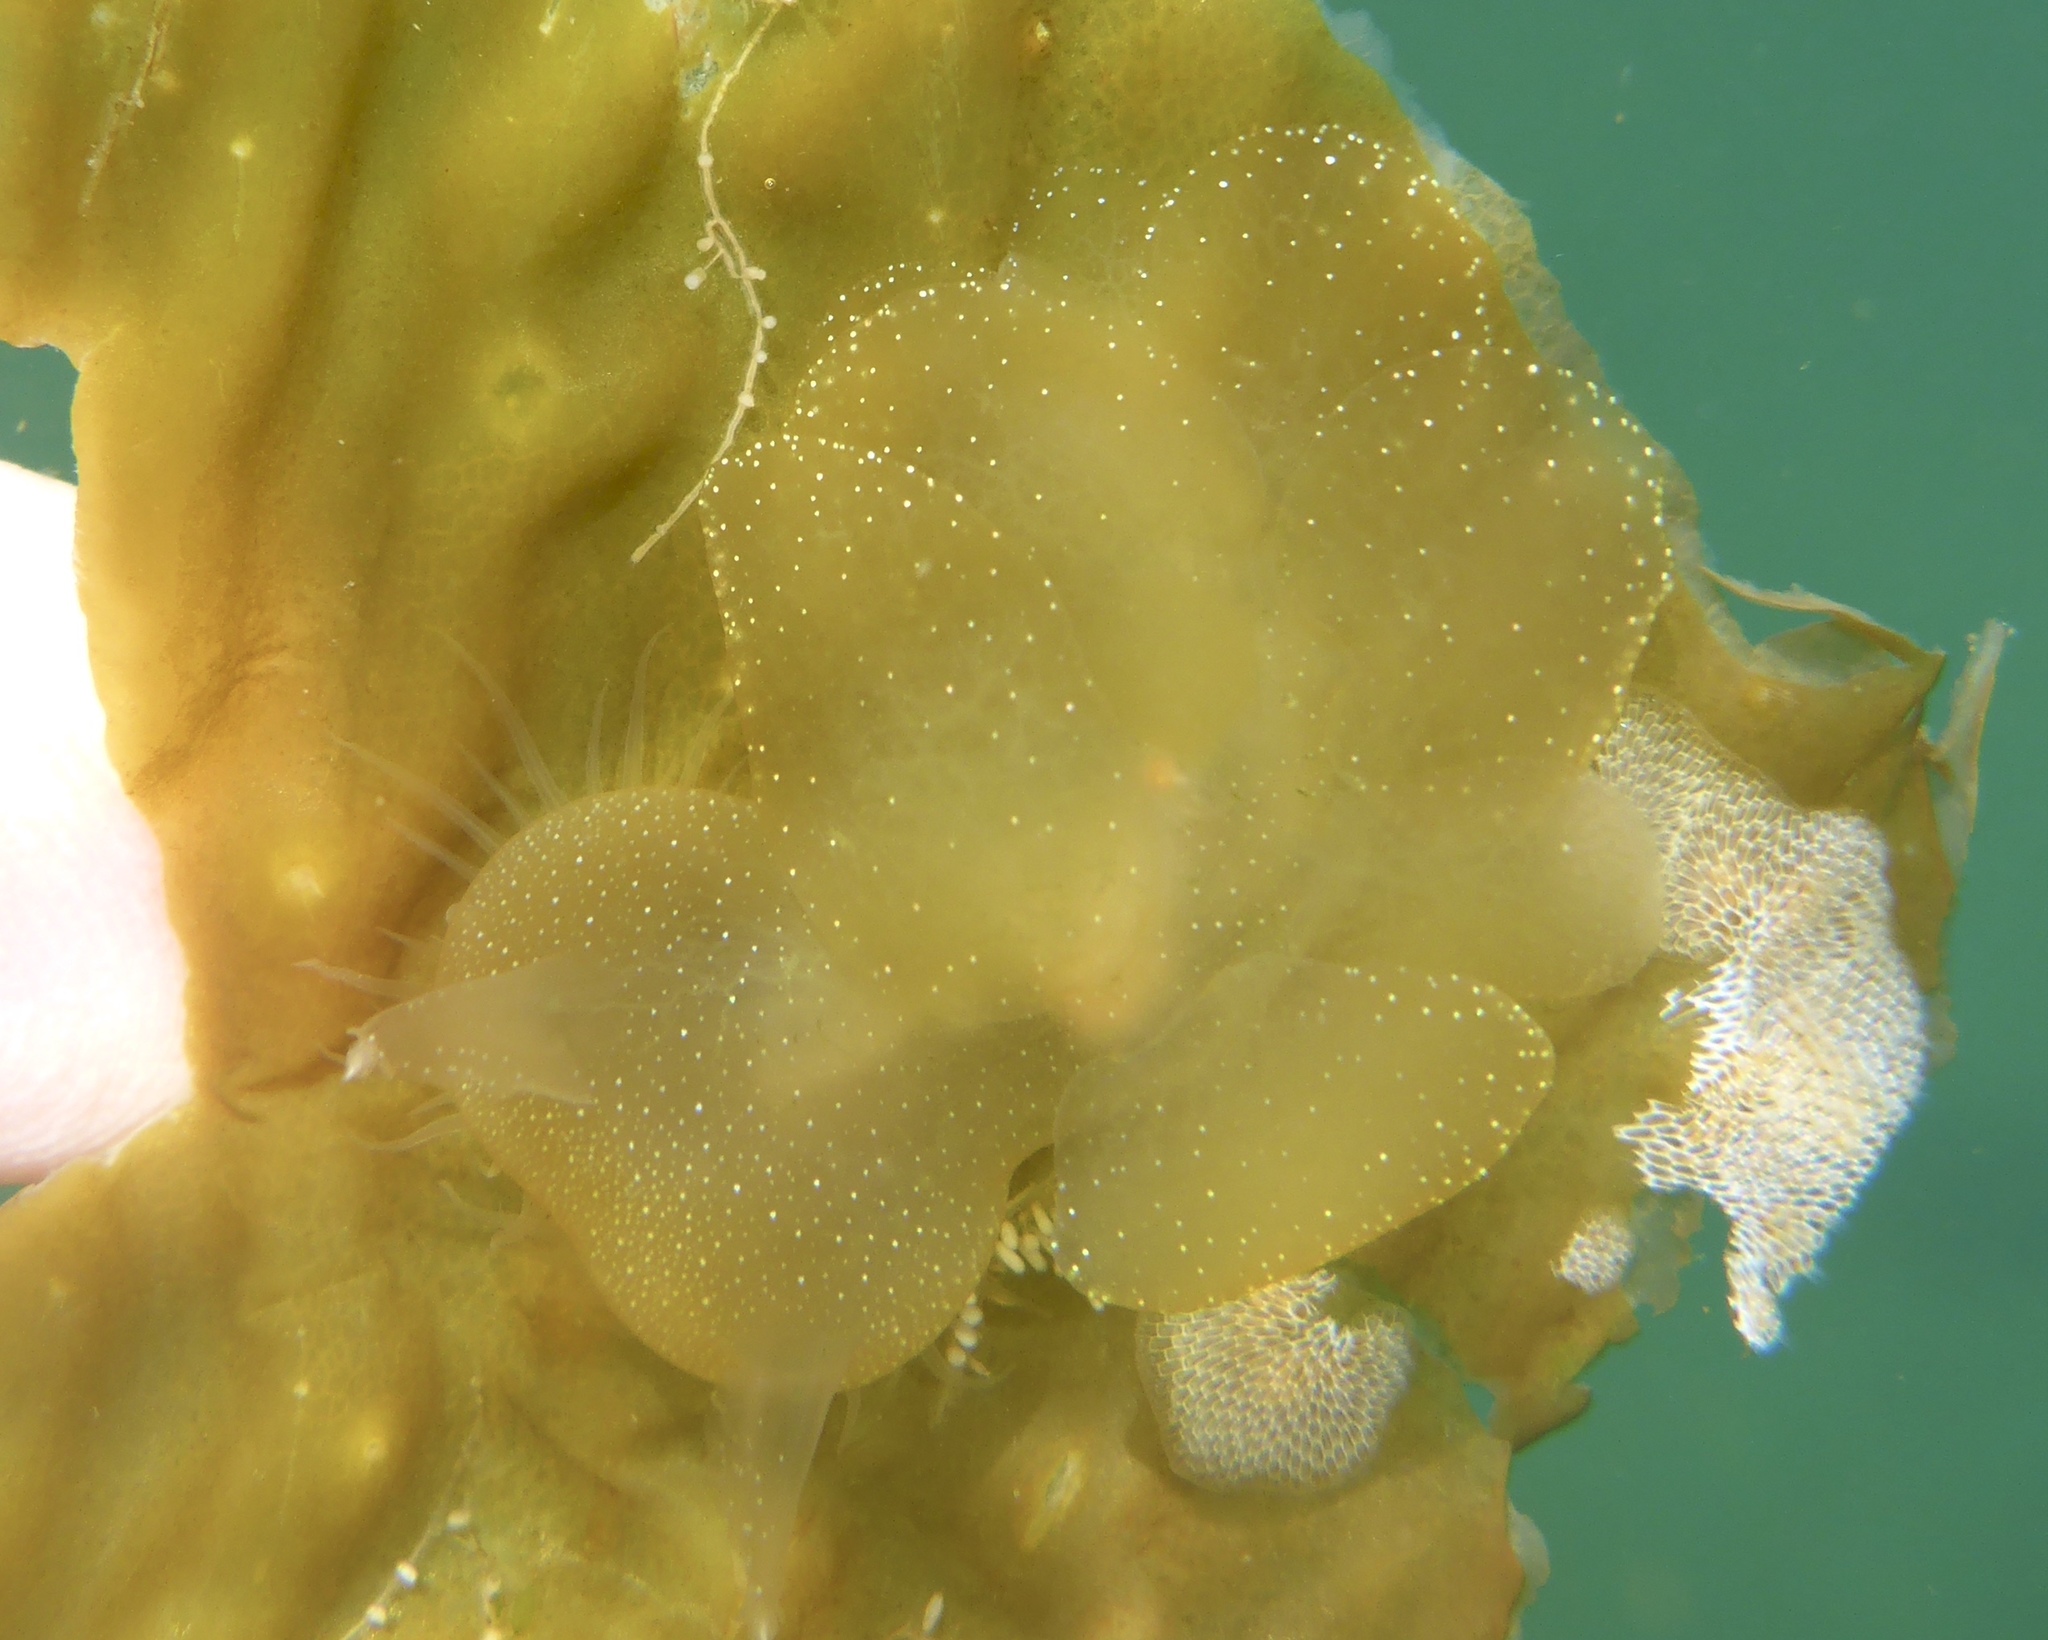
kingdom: Animalia
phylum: Mollusca
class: Gastropoda
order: Nudibranchia
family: Tethydidae
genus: Melibe
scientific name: Melibe leonina
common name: Lion nudibranch
